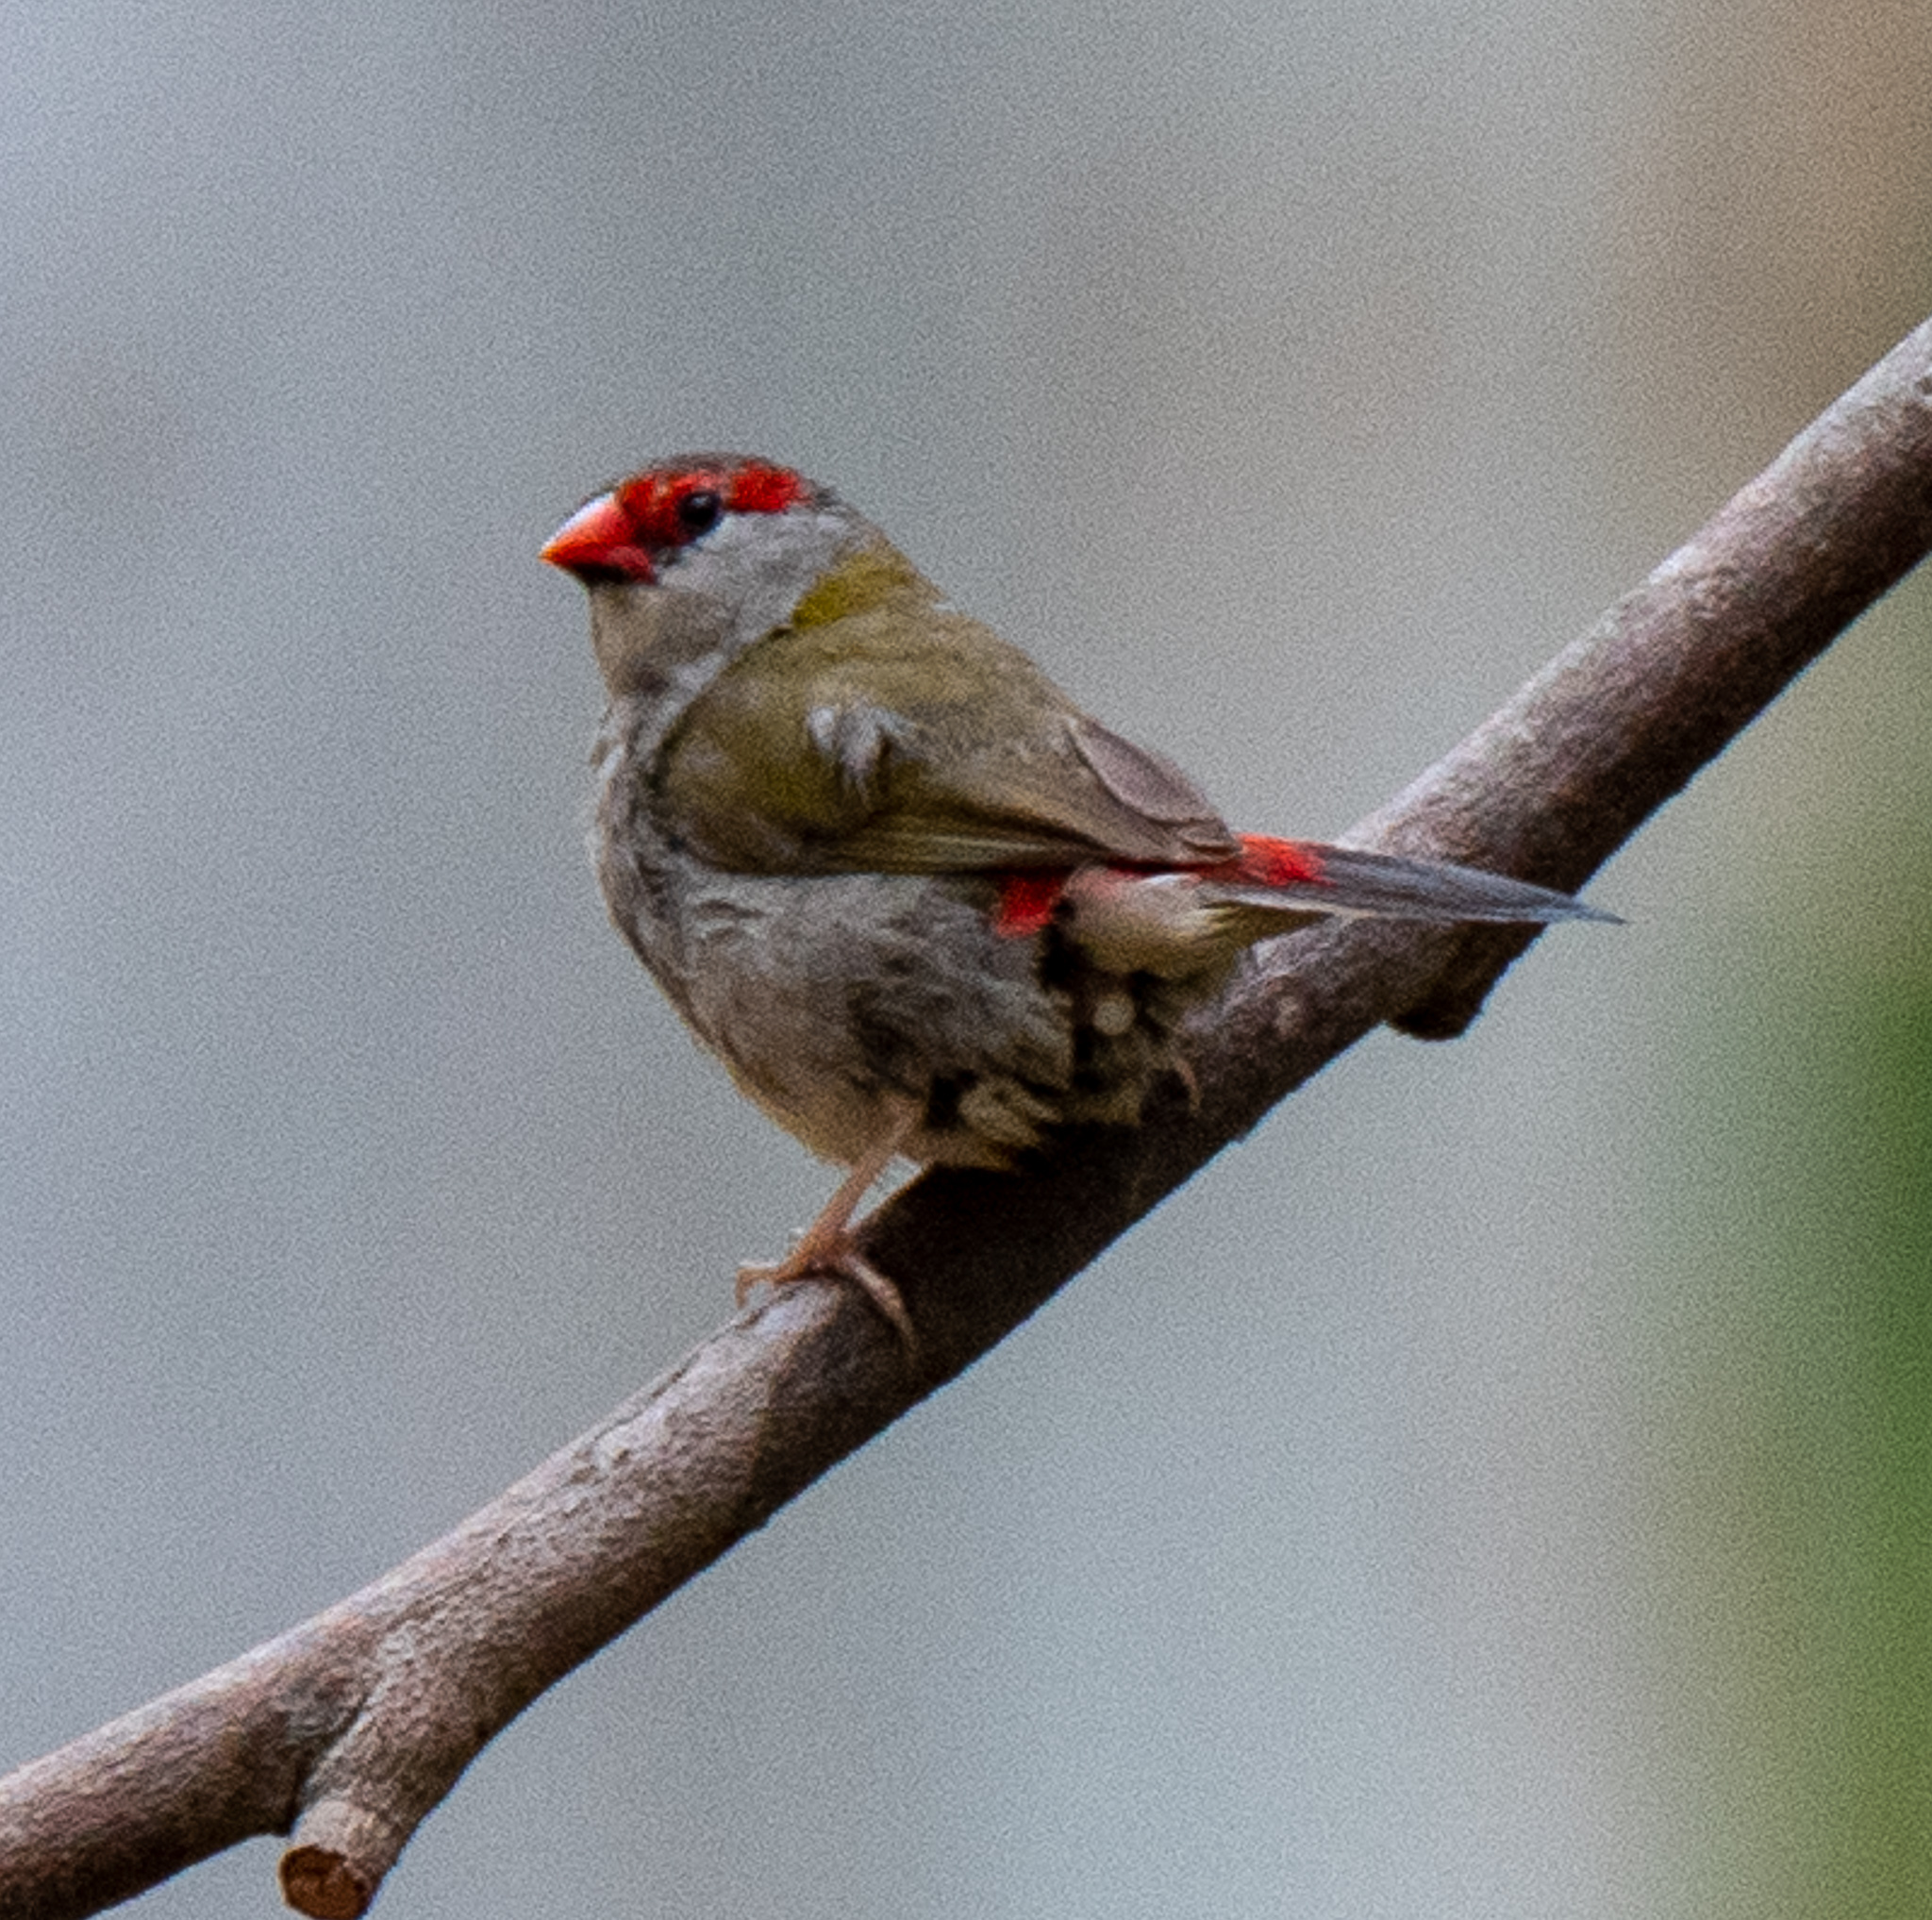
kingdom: Animalia
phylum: Chordata
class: Aves
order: Passeriformes
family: Estrildidae
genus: Neochmia
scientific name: Neochmia temporalis
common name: Red-browed finch
